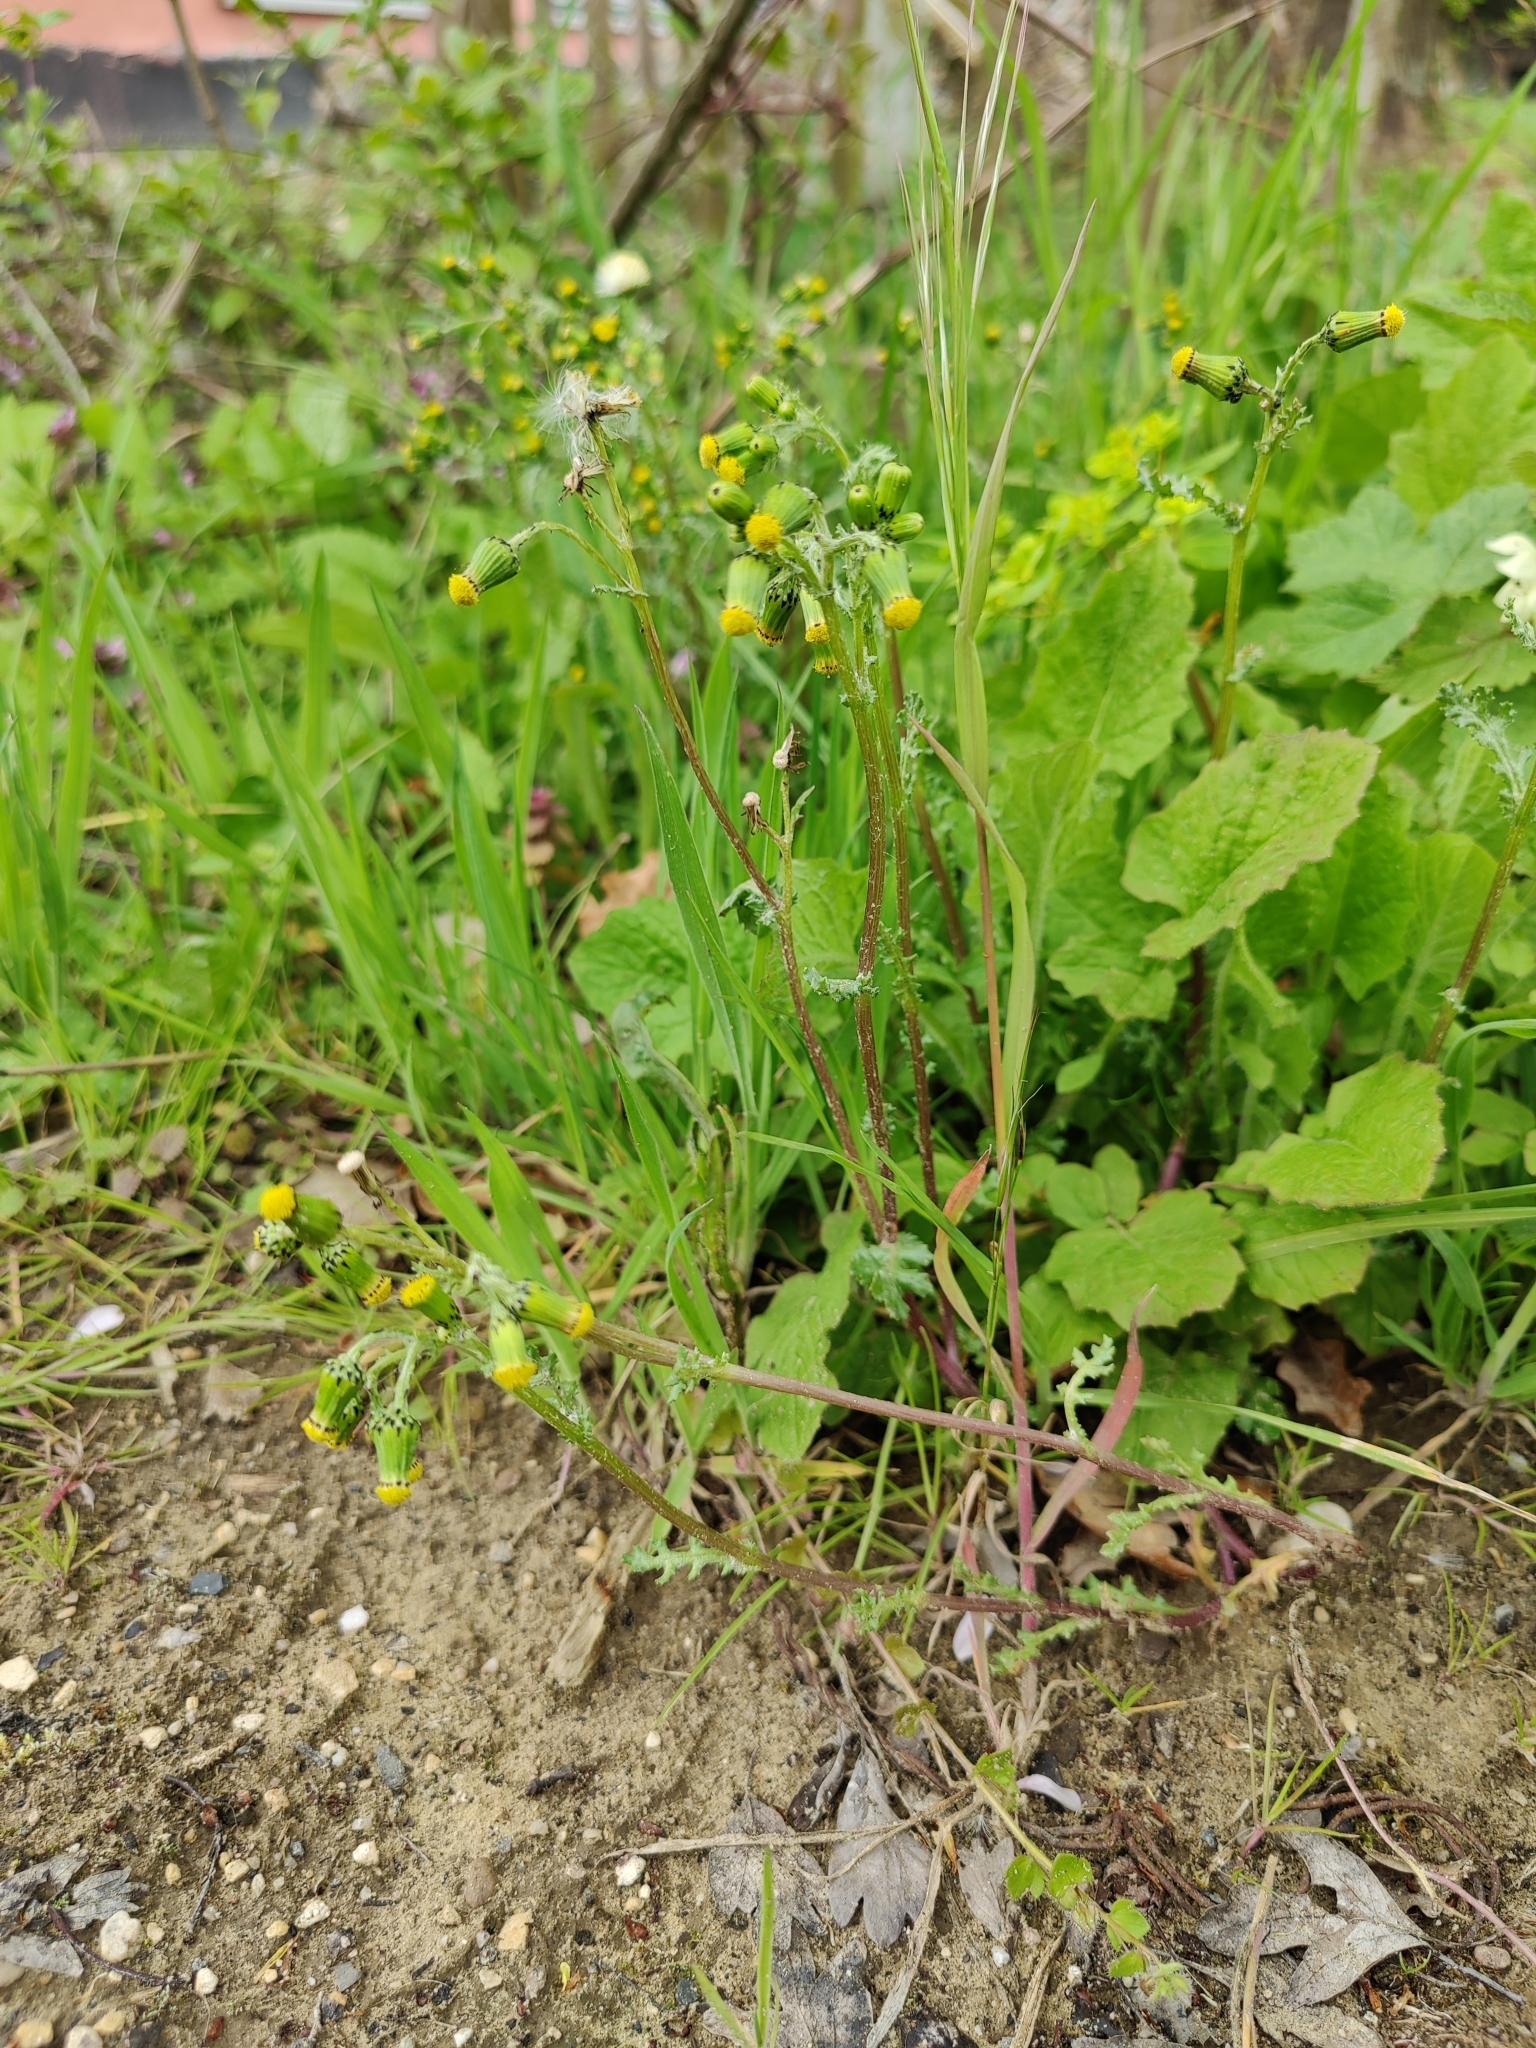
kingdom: Plantae
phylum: Tracheophyta
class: Magnoliopsida
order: Asterales
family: Asteraceae
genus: Senecio
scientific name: Senecio vulgaris
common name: Old-man-in-the-spring
